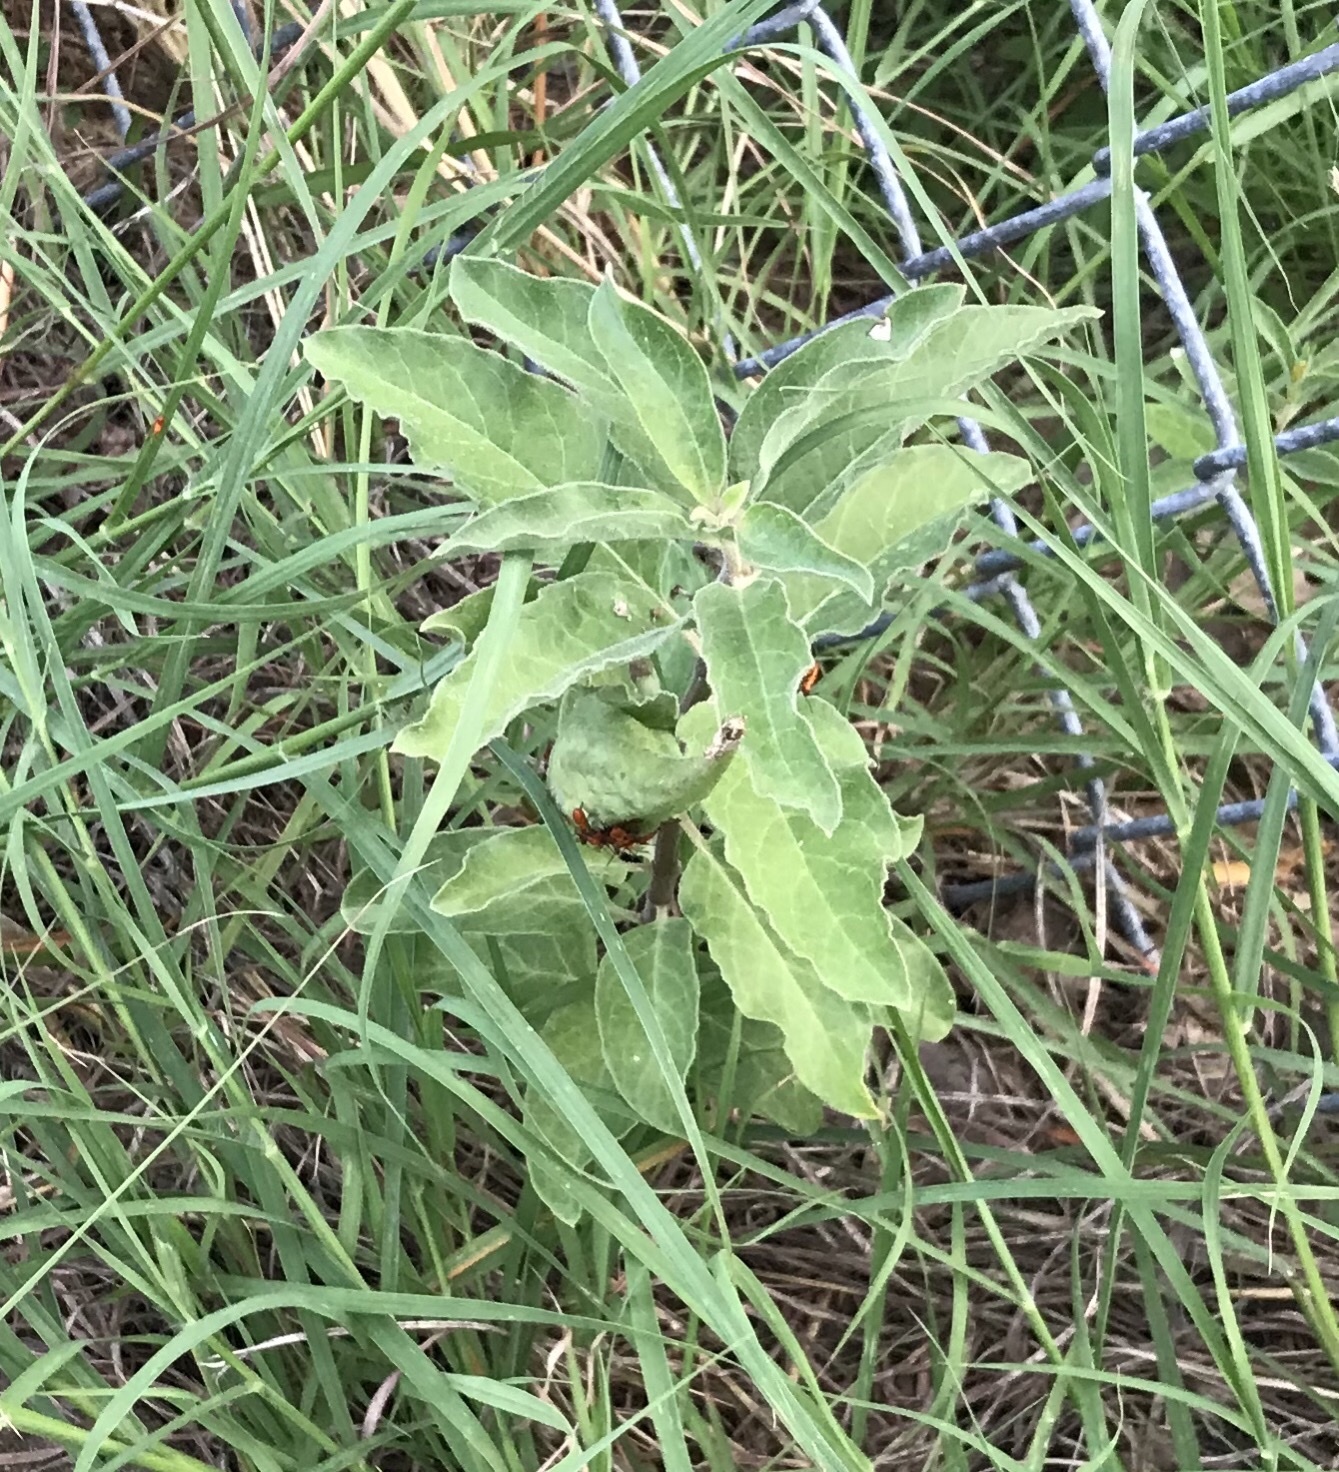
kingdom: Plantae
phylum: Tracheophyta
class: Magnoliopsida
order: Gentianales
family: Apocynaceae
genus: Asclepias
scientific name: Asclepias oenotheroides
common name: Zizotes milkweed
